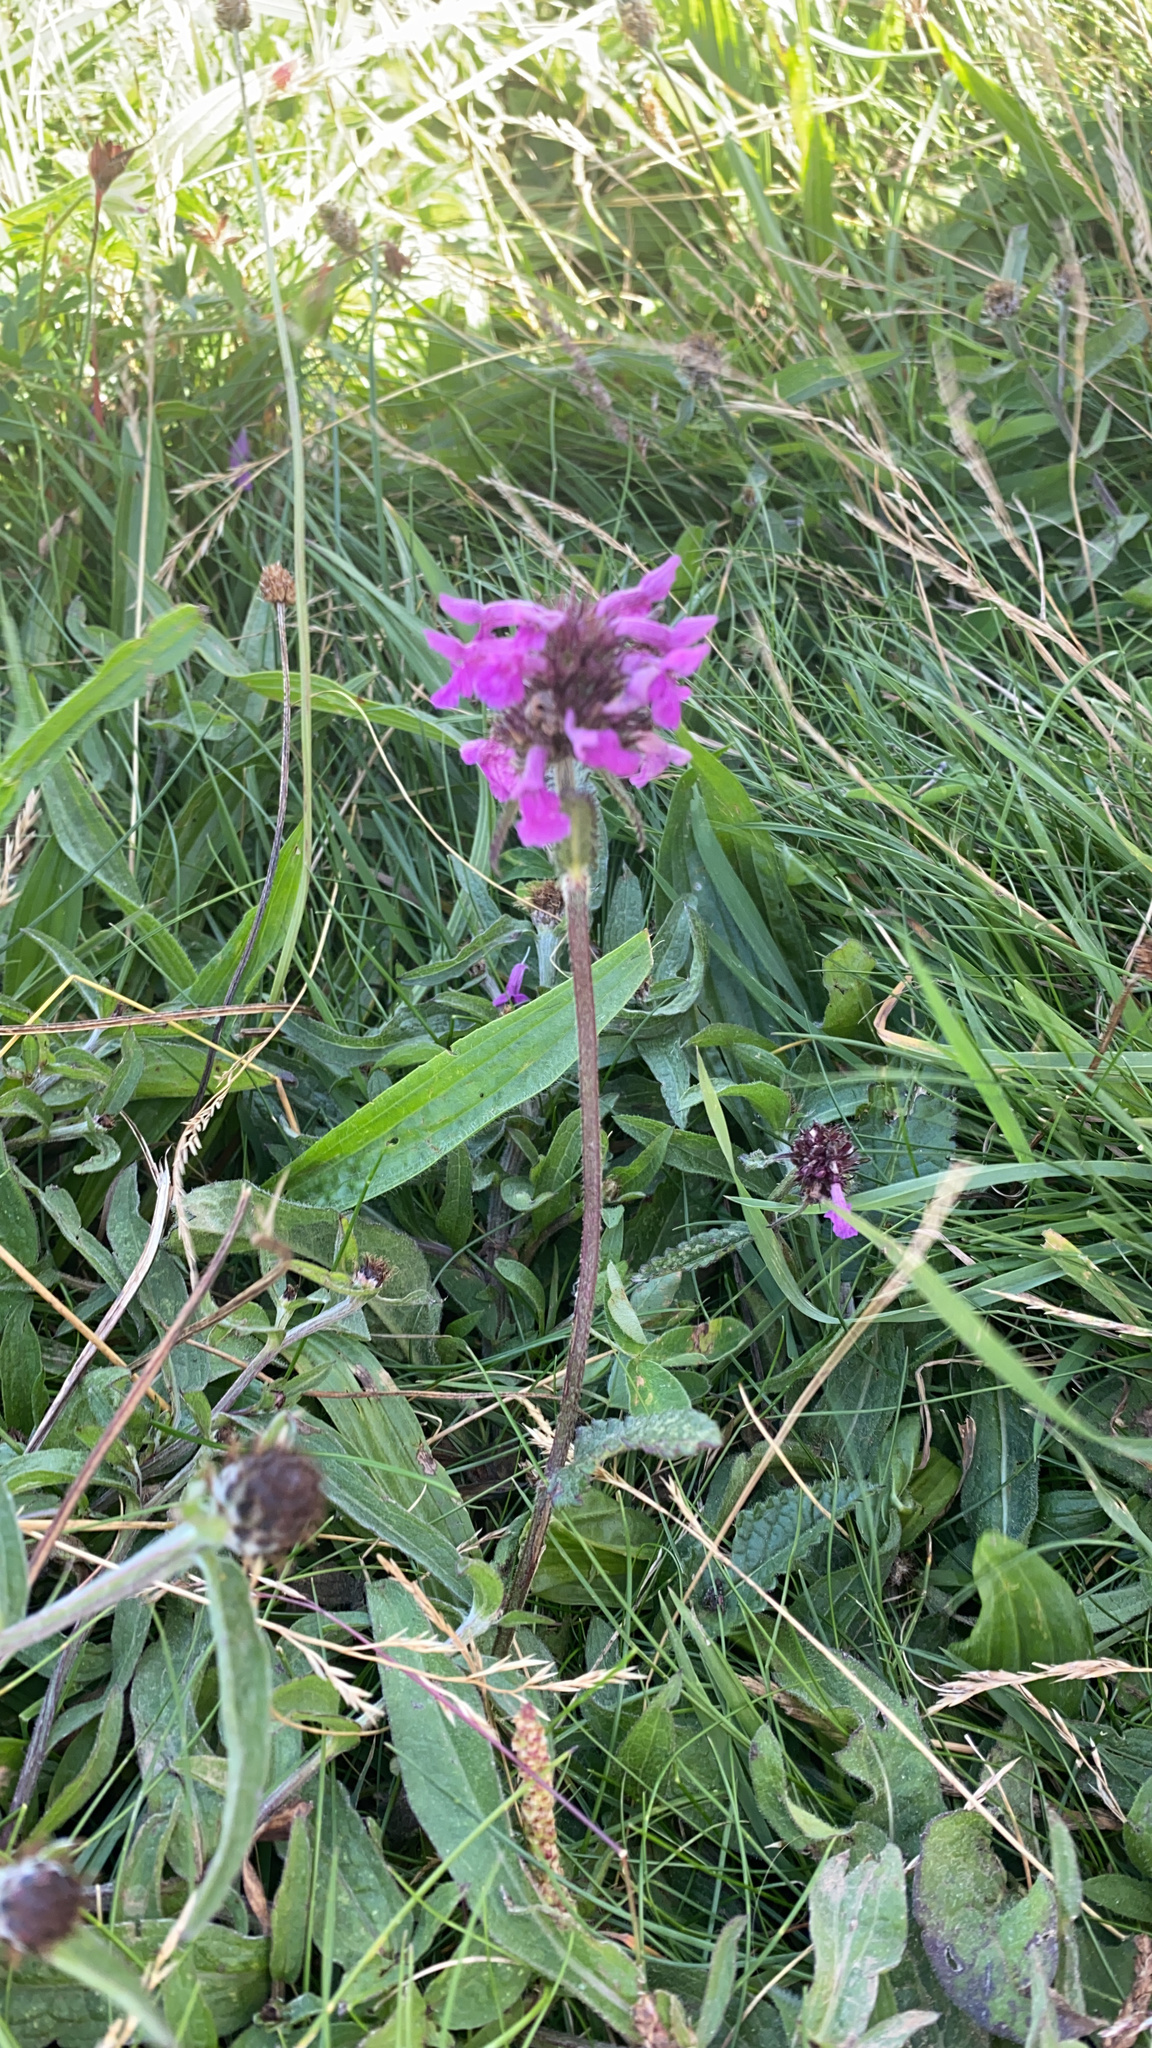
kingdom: Plantae
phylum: Tracheophyta
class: Magnoliopsida
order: Lamiales
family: Lamiaceae
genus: Betonica
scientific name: Betonica officinalis
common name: Bishop's-wort
